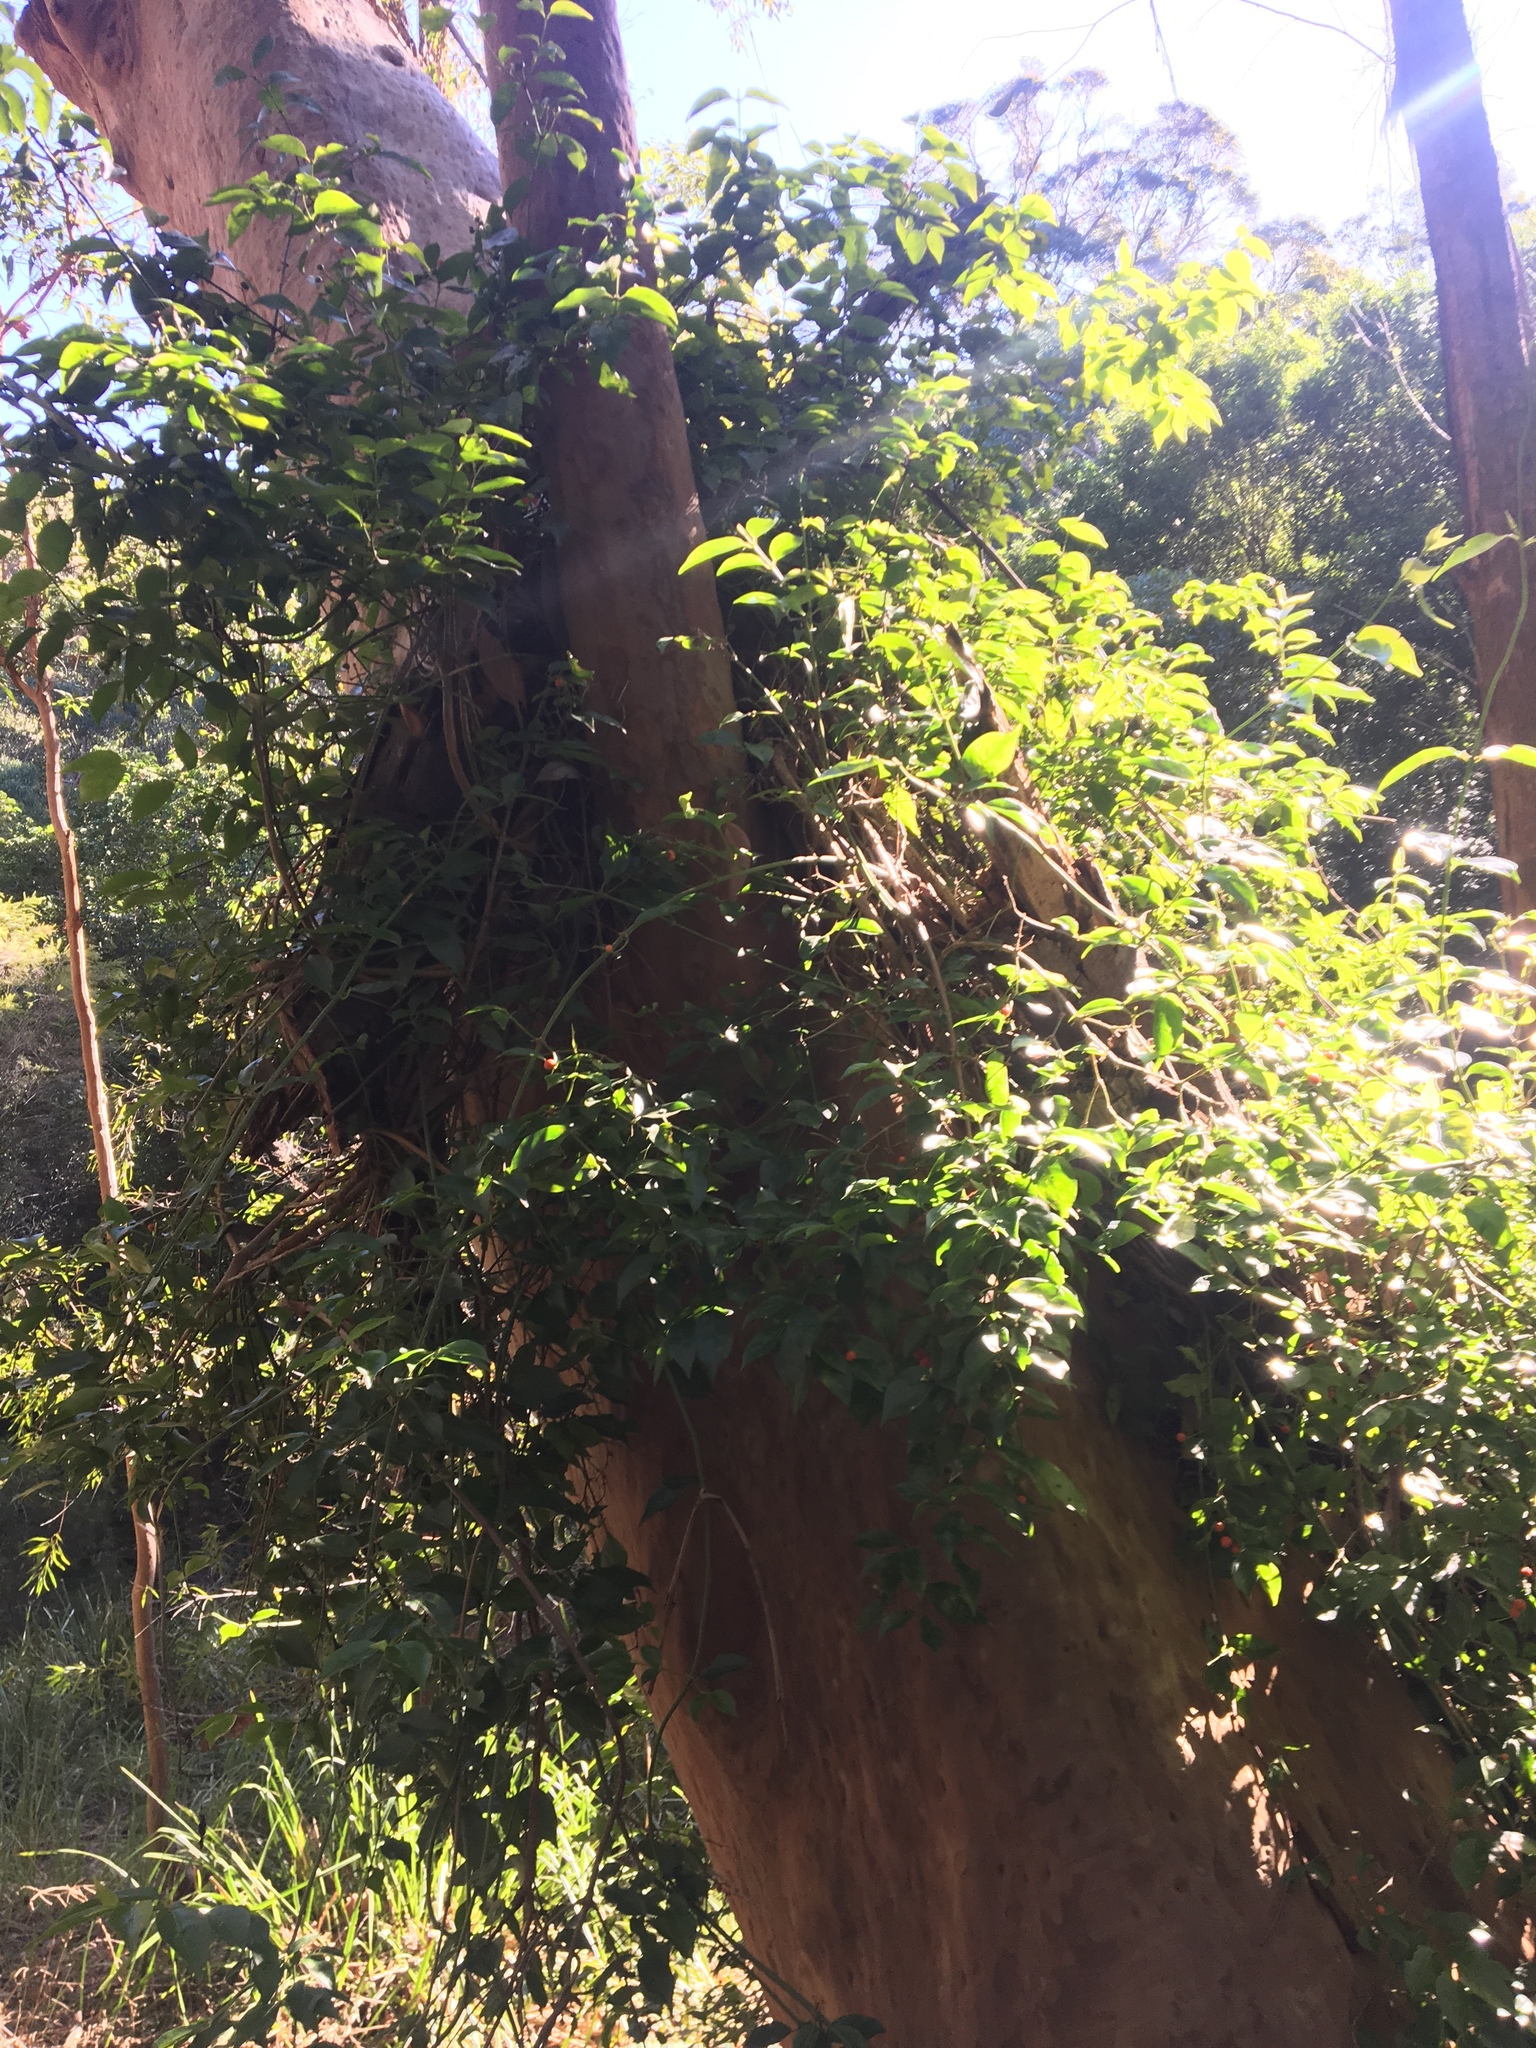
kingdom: Plantae
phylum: Tracheophyta
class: Magnoliopsida
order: Gentianales
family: Rubiaceae
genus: Gynochthodes
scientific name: Gynochthodes jasminoides
